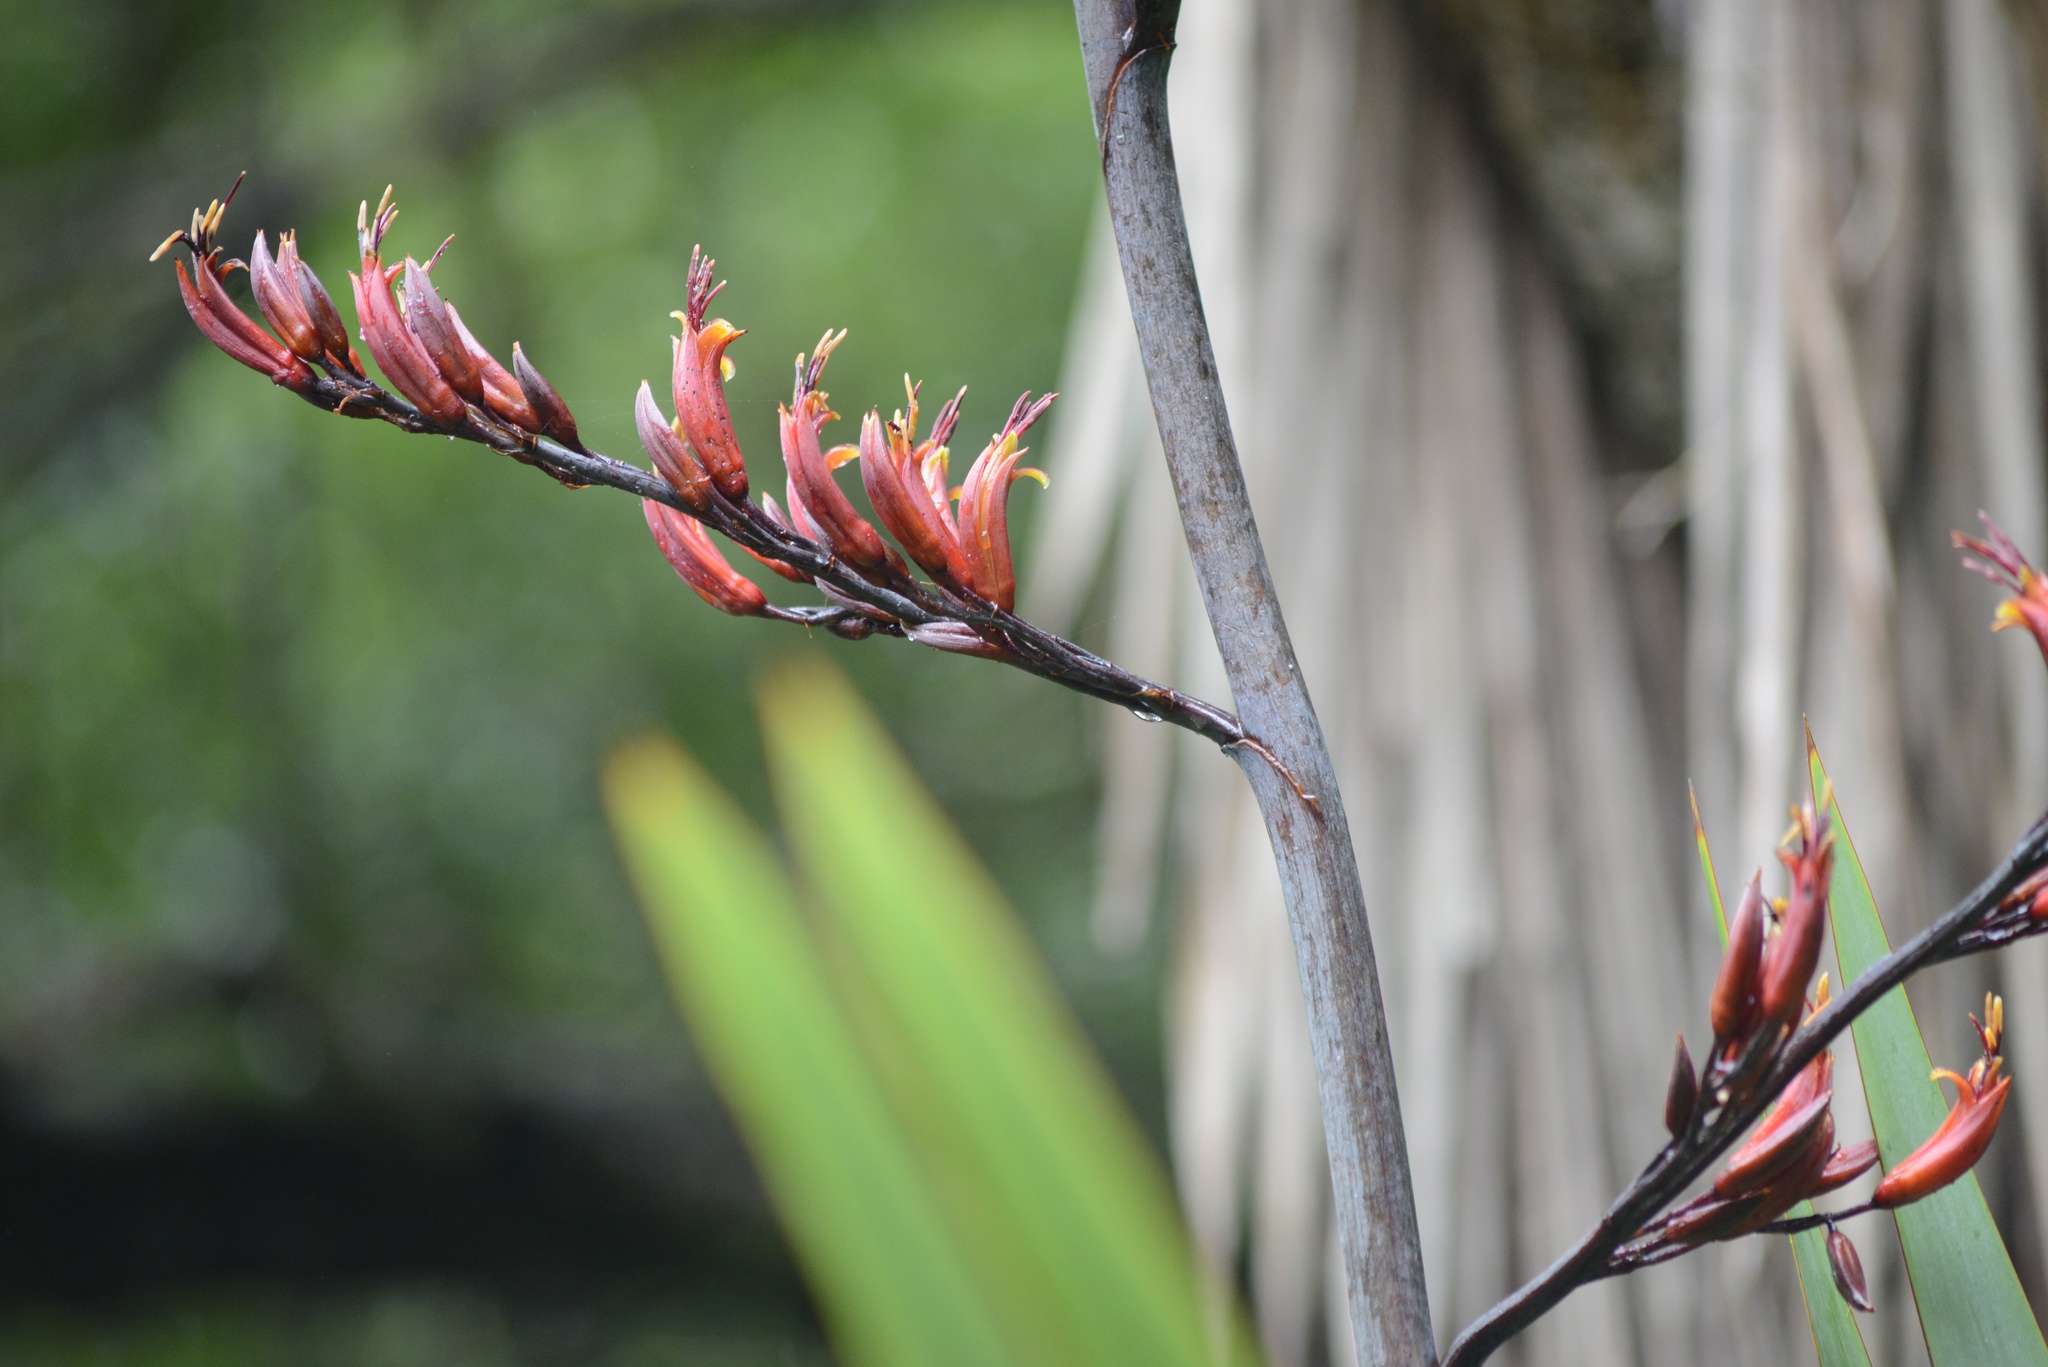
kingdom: Plantae
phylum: Tracheophyta
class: Liliopsida
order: Asparagales
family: Asphodelaceae
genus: Phormium
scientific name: Phormium tenax
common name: New zealand flax
